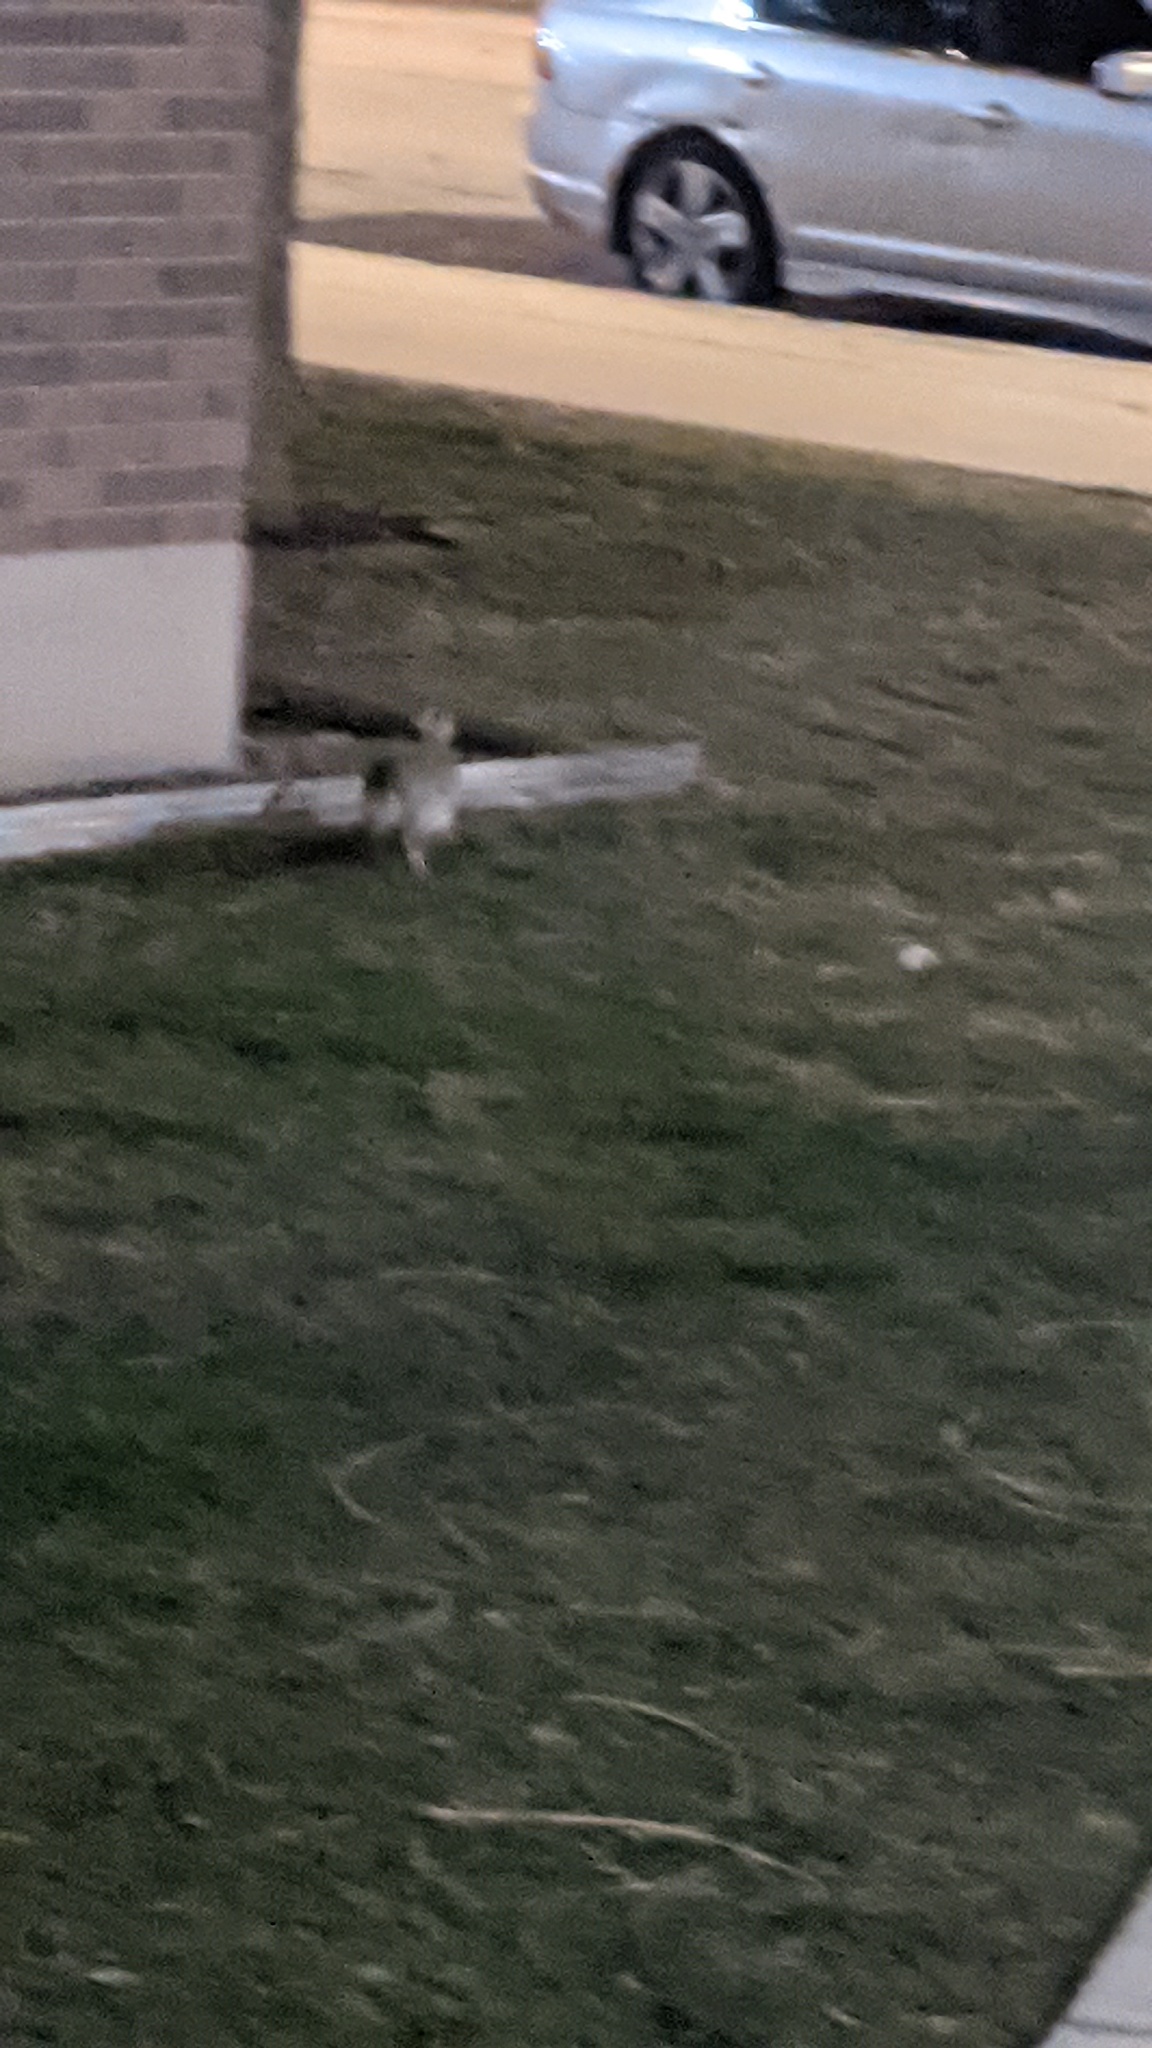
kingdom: Animalia
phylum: Chordata
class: Mammalia
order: Lagomorpha
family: Leporidae
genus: Sylvilagus
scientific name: Sylvilagus floridanus
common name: Eastern cottontail
